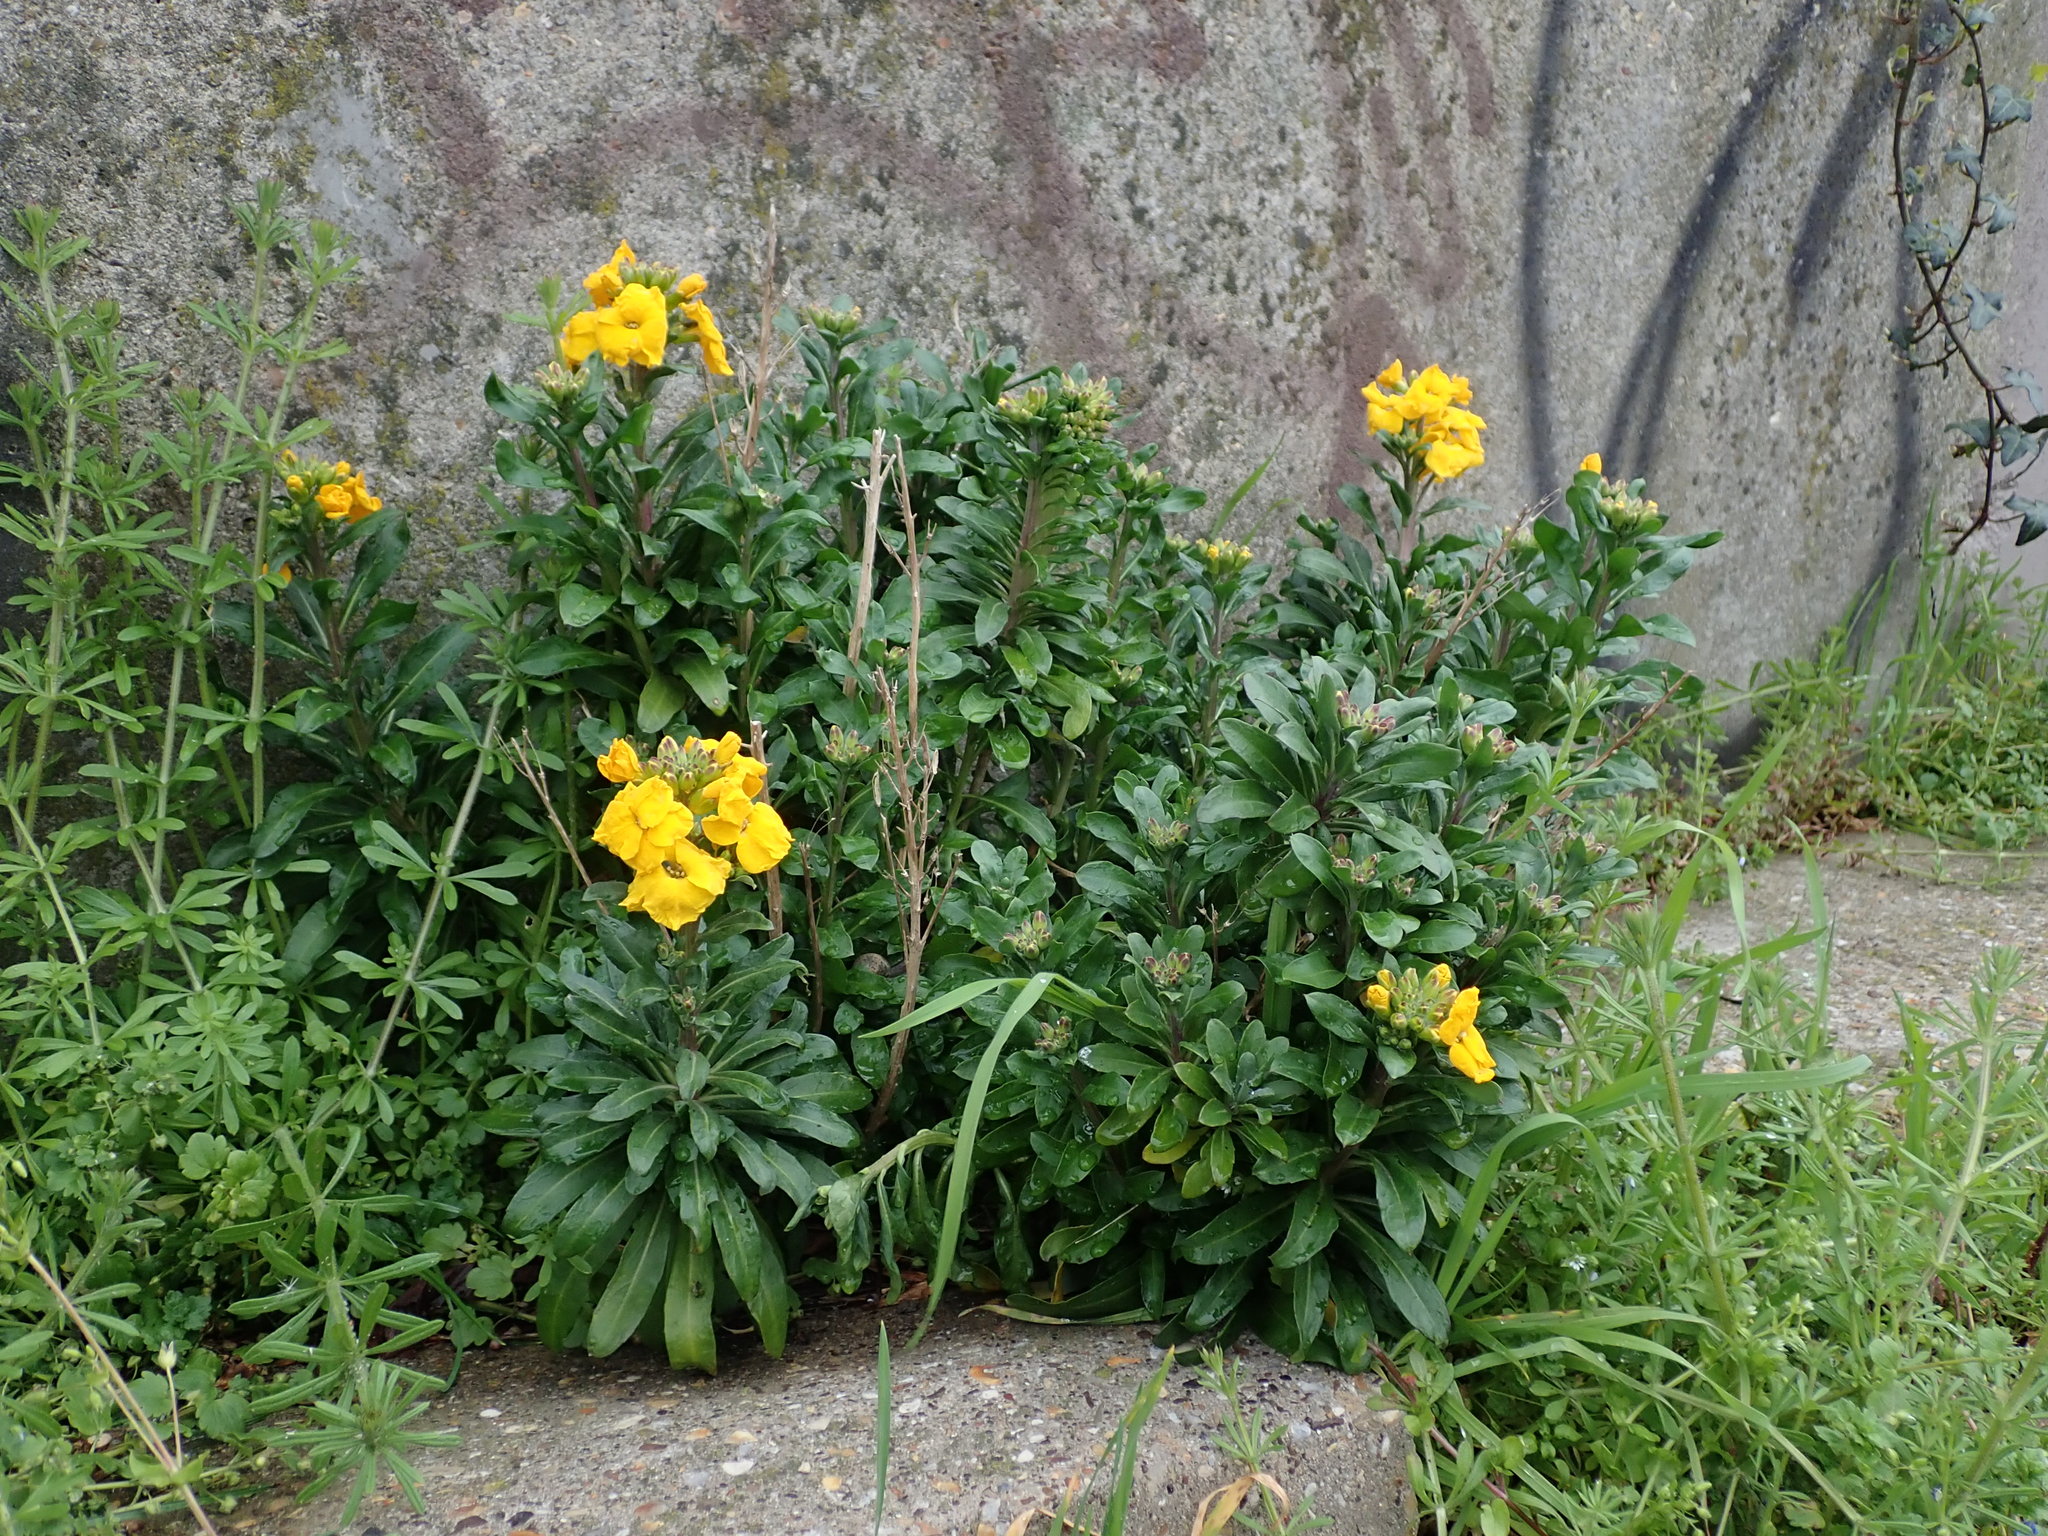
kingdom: Plantae
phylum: Tracheophyta
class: Magnoliopsida
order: Brassicales
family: Brassicaceae
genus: Erysimum
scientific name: Erysimum cheiri
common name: Wallflower
